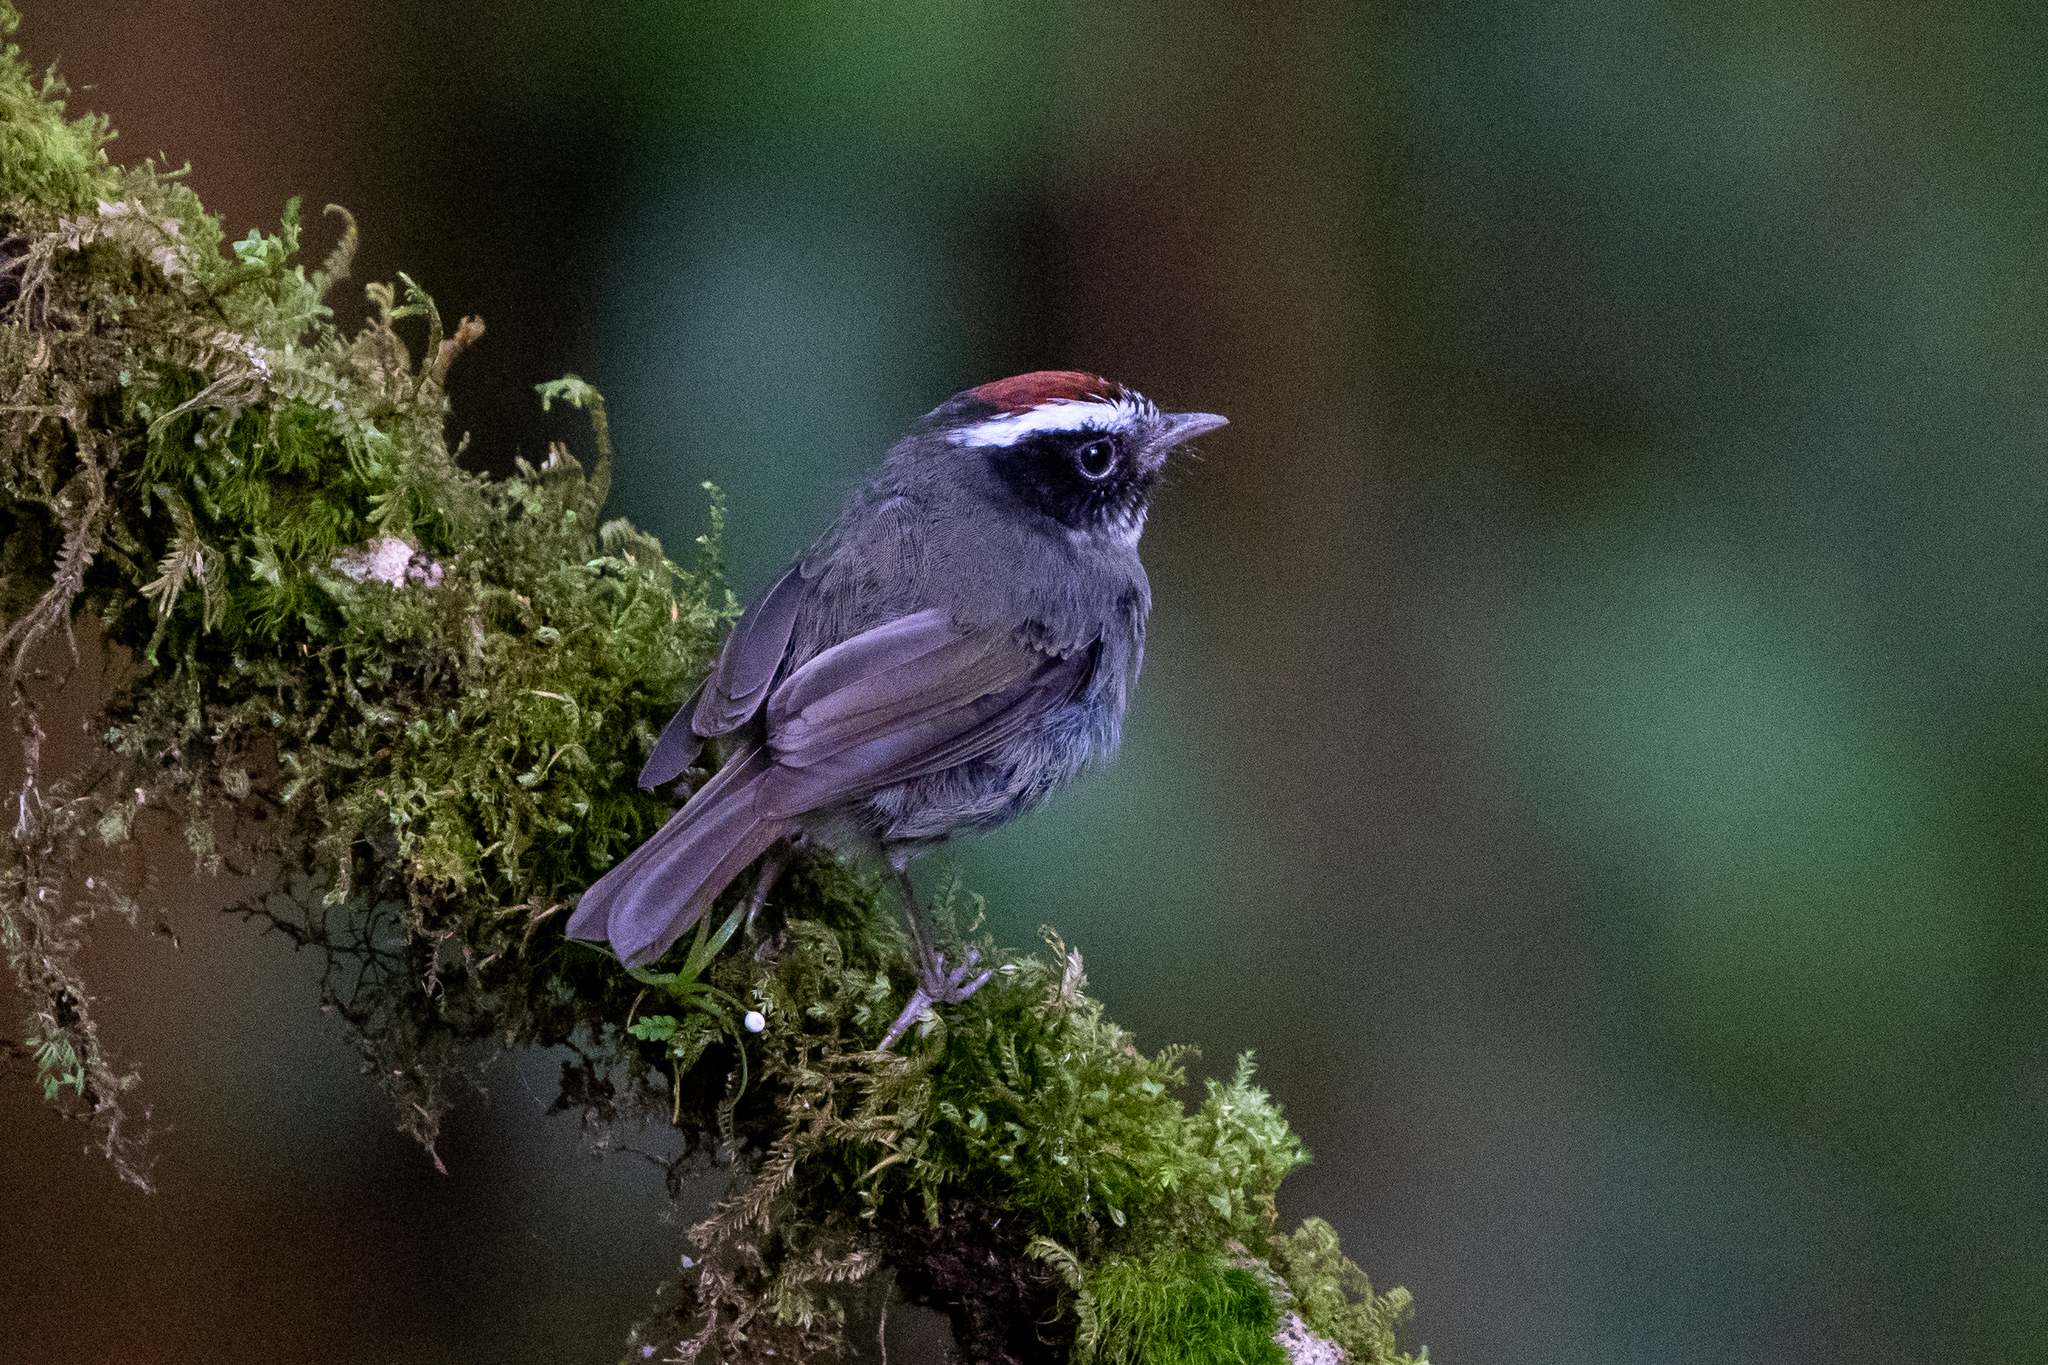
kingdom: Animalia
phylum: Chordata
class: Aves
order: Passeriformes
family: Parulidae
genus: Basileuterus
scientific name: Basileuterus melanogenys
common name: Black-cheeked warbler
